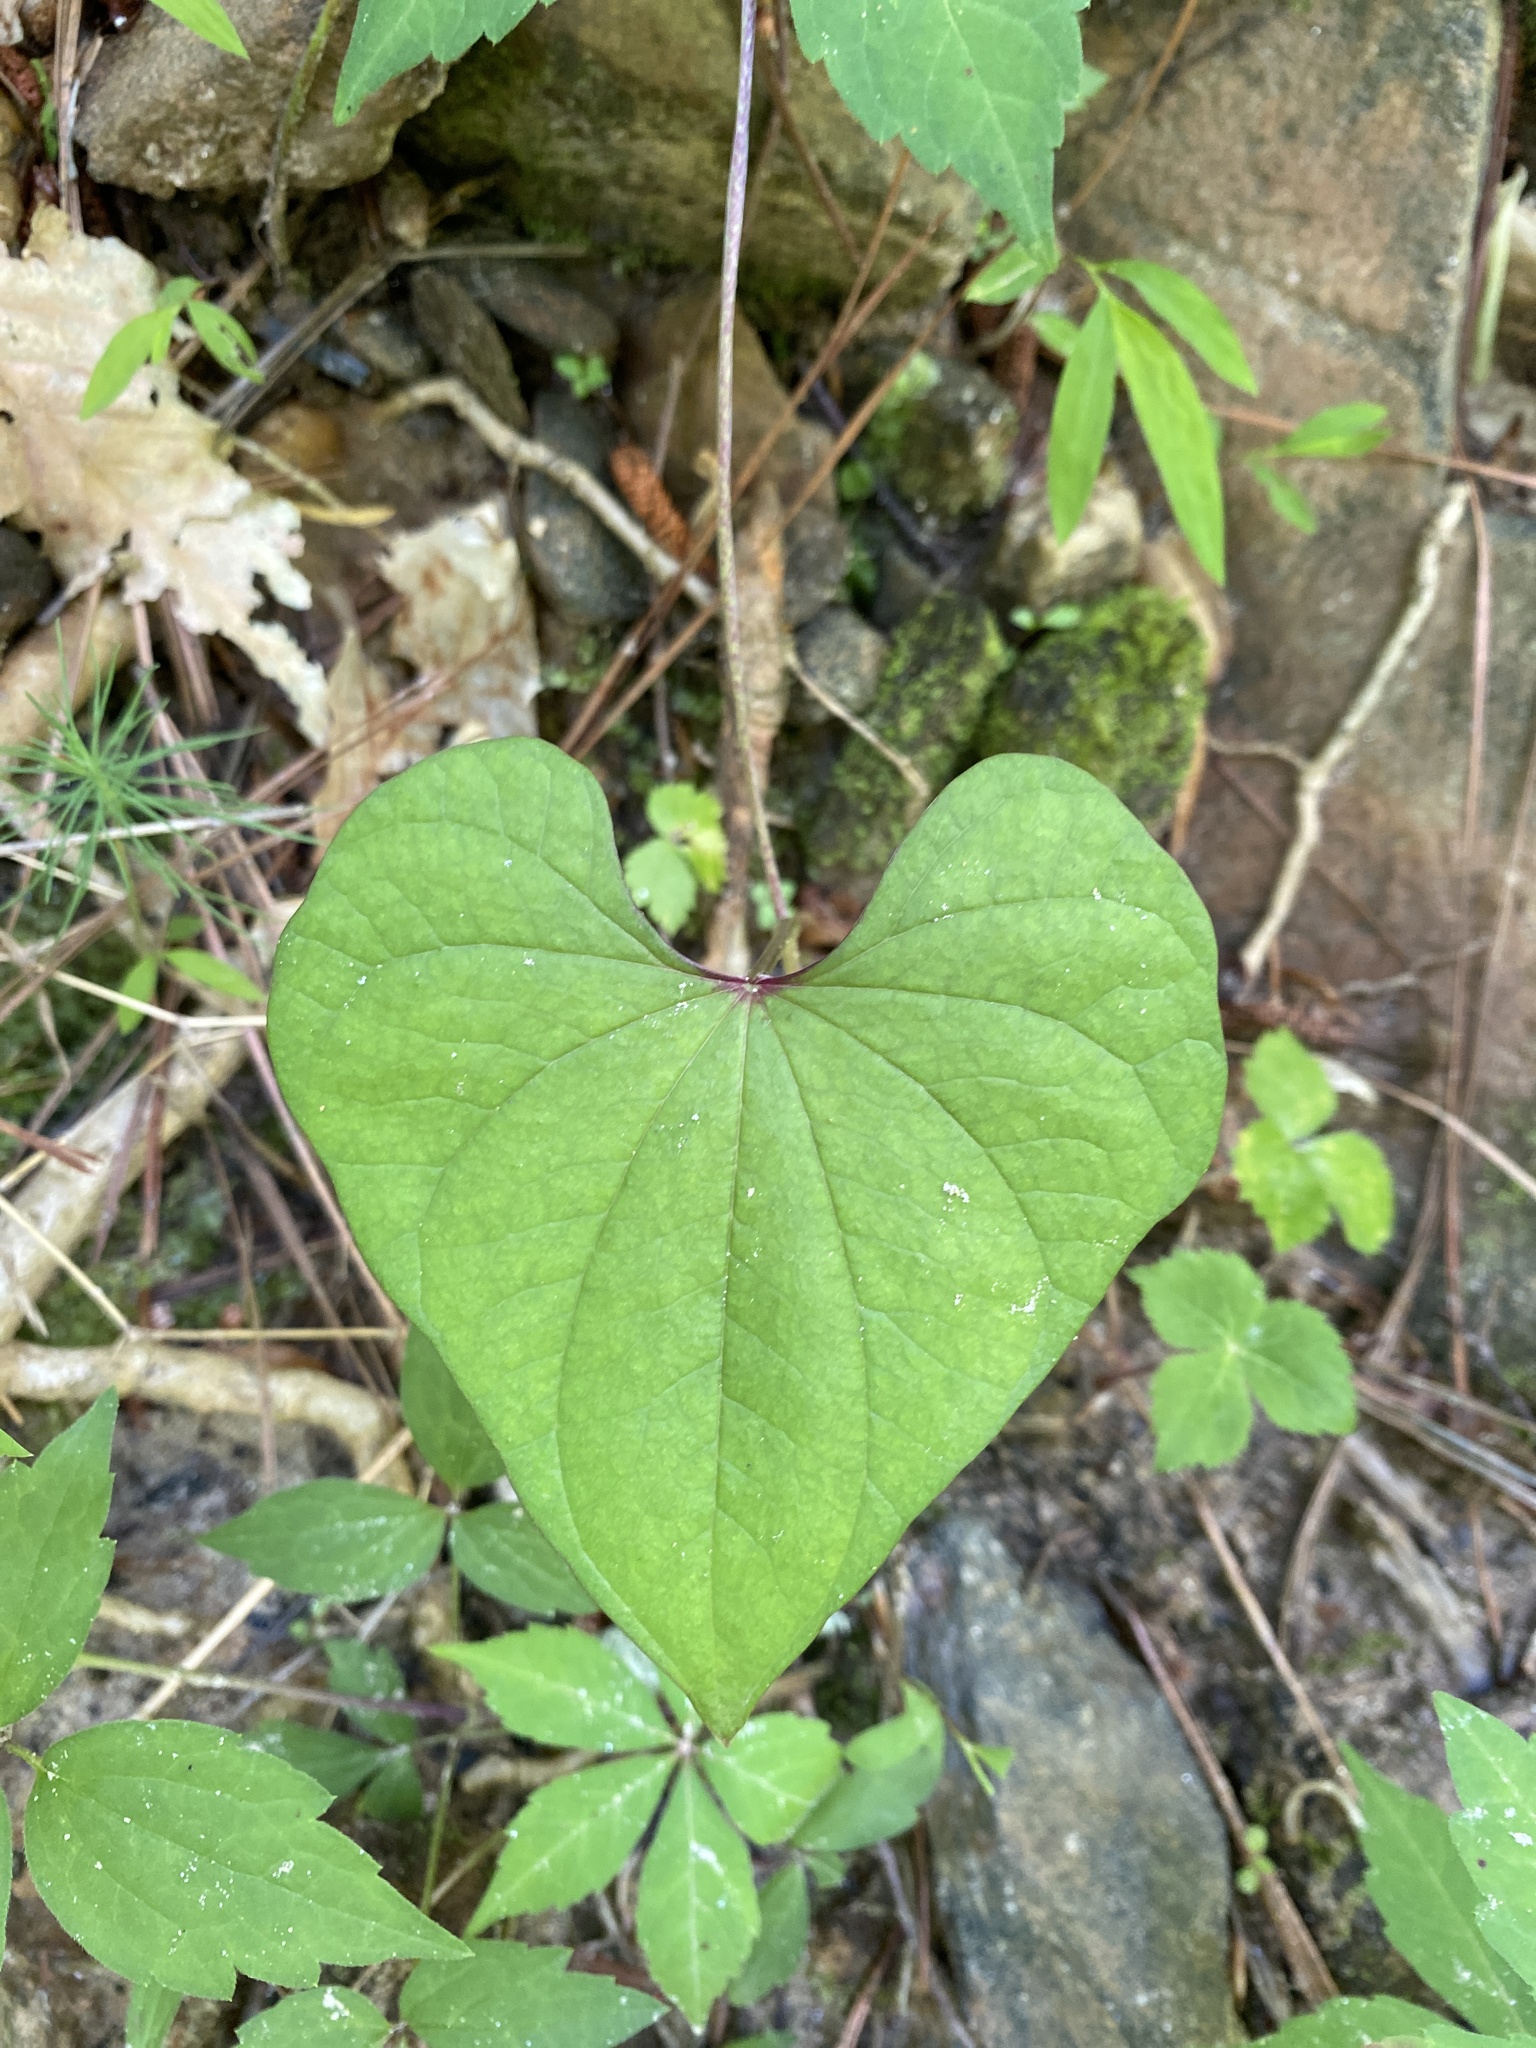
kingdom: Plantae
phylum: Tracheophyta
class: Liliopsida
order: Dioscoreales
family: Dioscoreaceae
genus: Dioscorea
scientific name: Dioscorea polystachya
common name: Chinese yam
